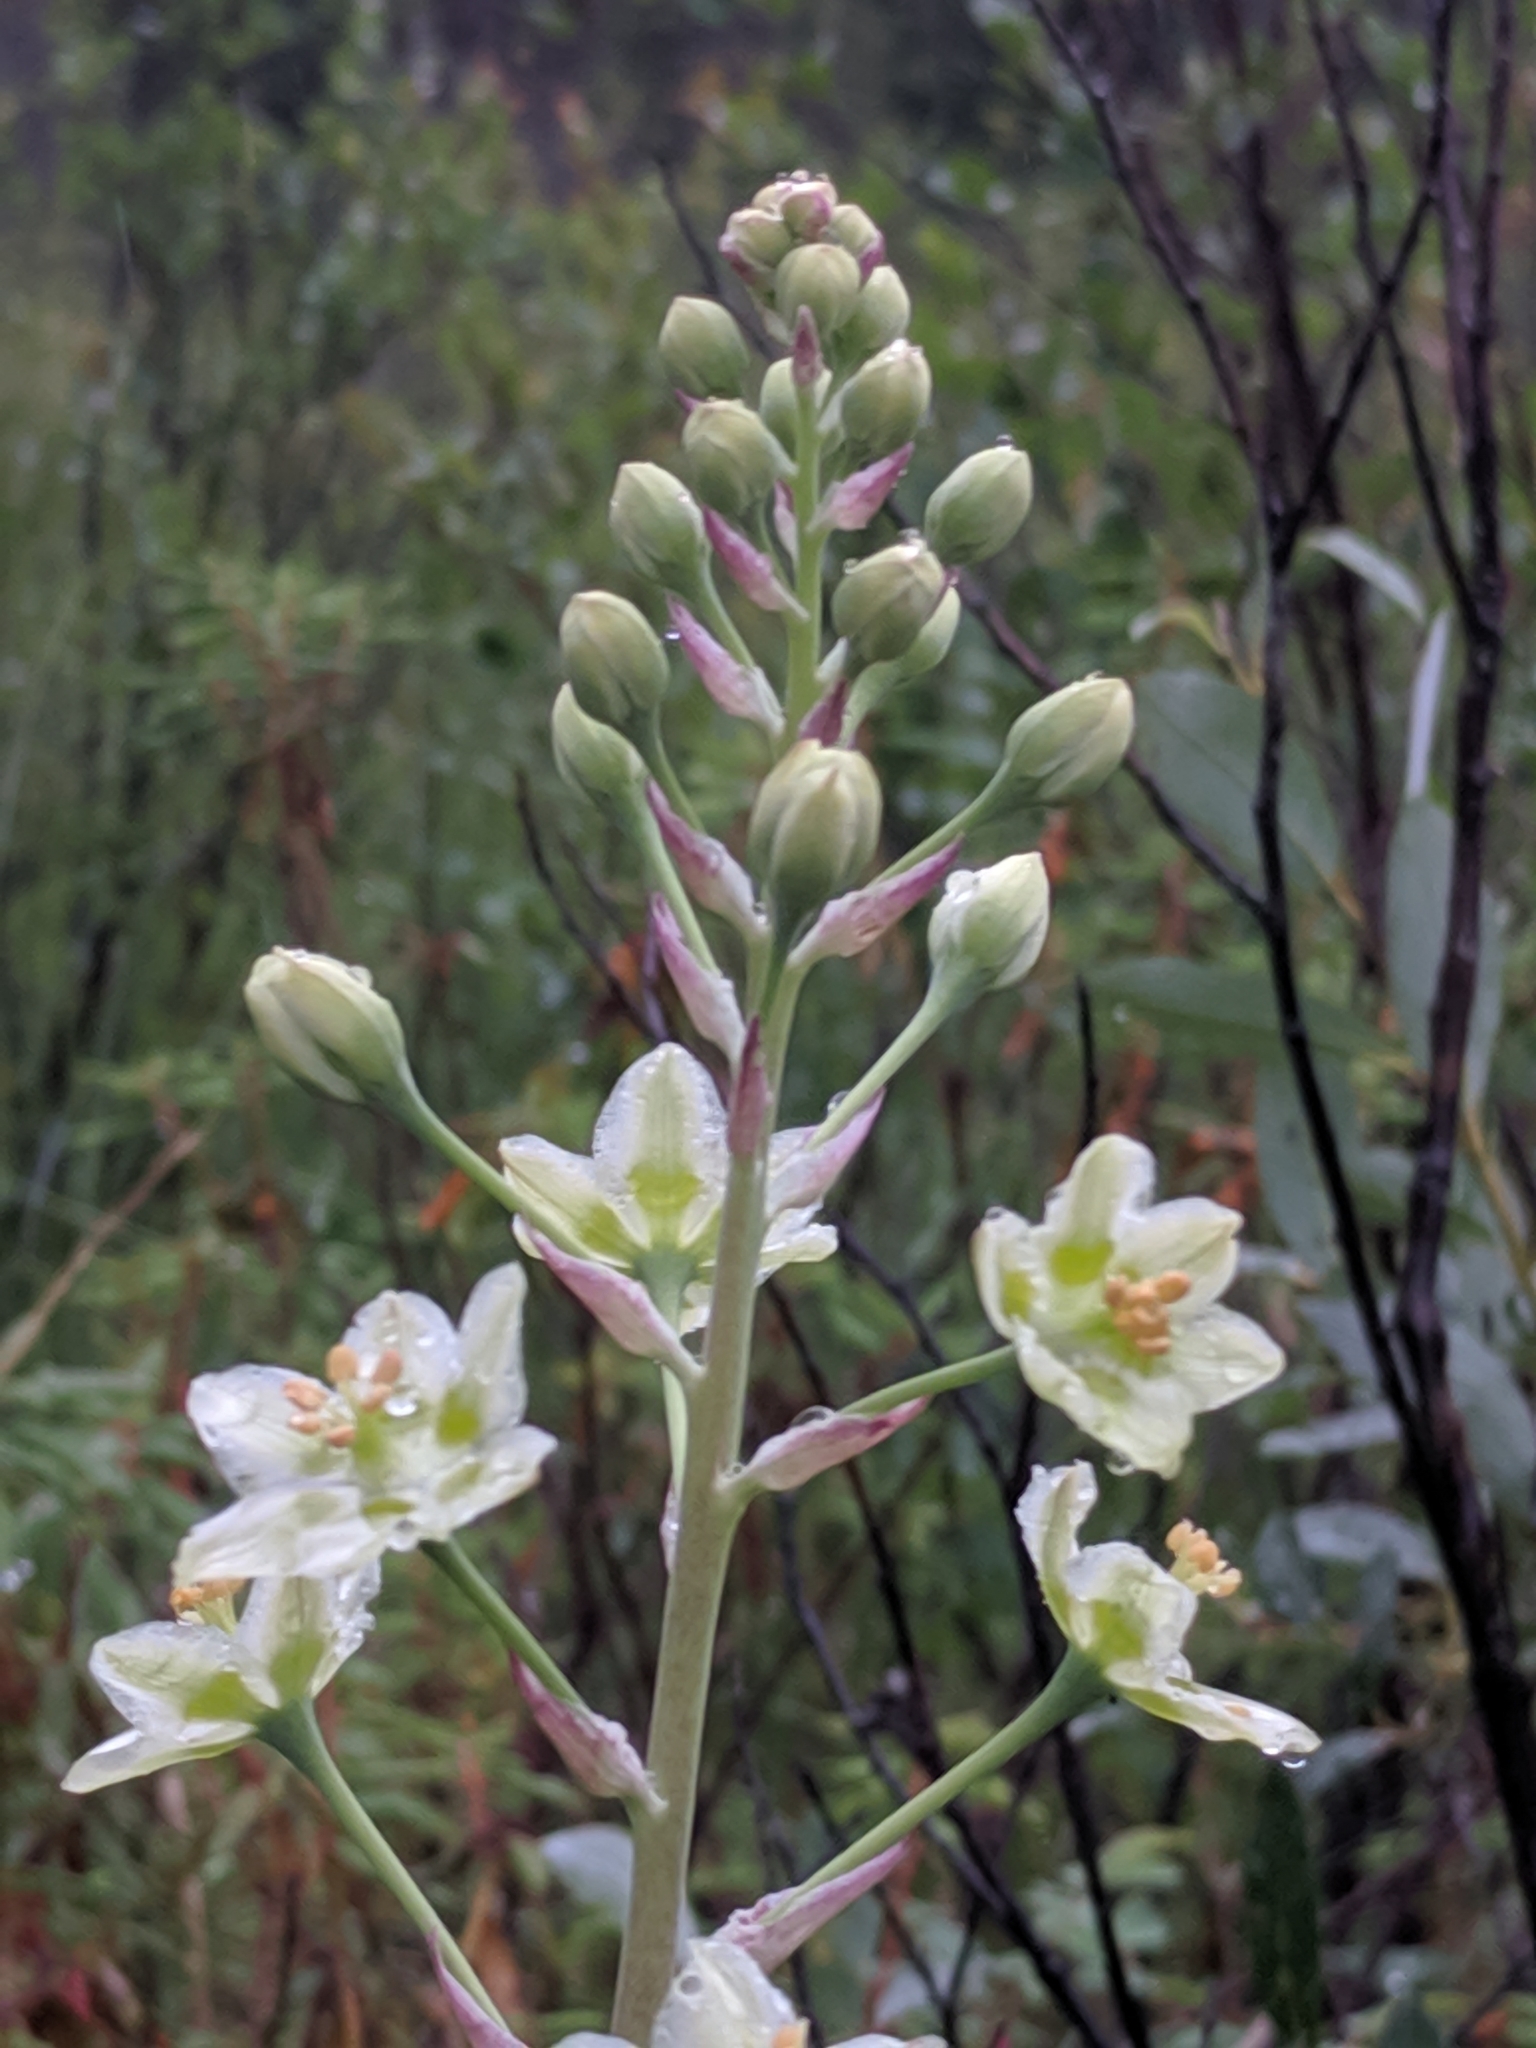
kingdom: Plantae
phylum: Tracheophyta
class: Liliopsida
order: Liliales
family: Melanthiaceae
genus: Anticlea
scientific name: Anticlea elegans
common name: Mountain death camas
